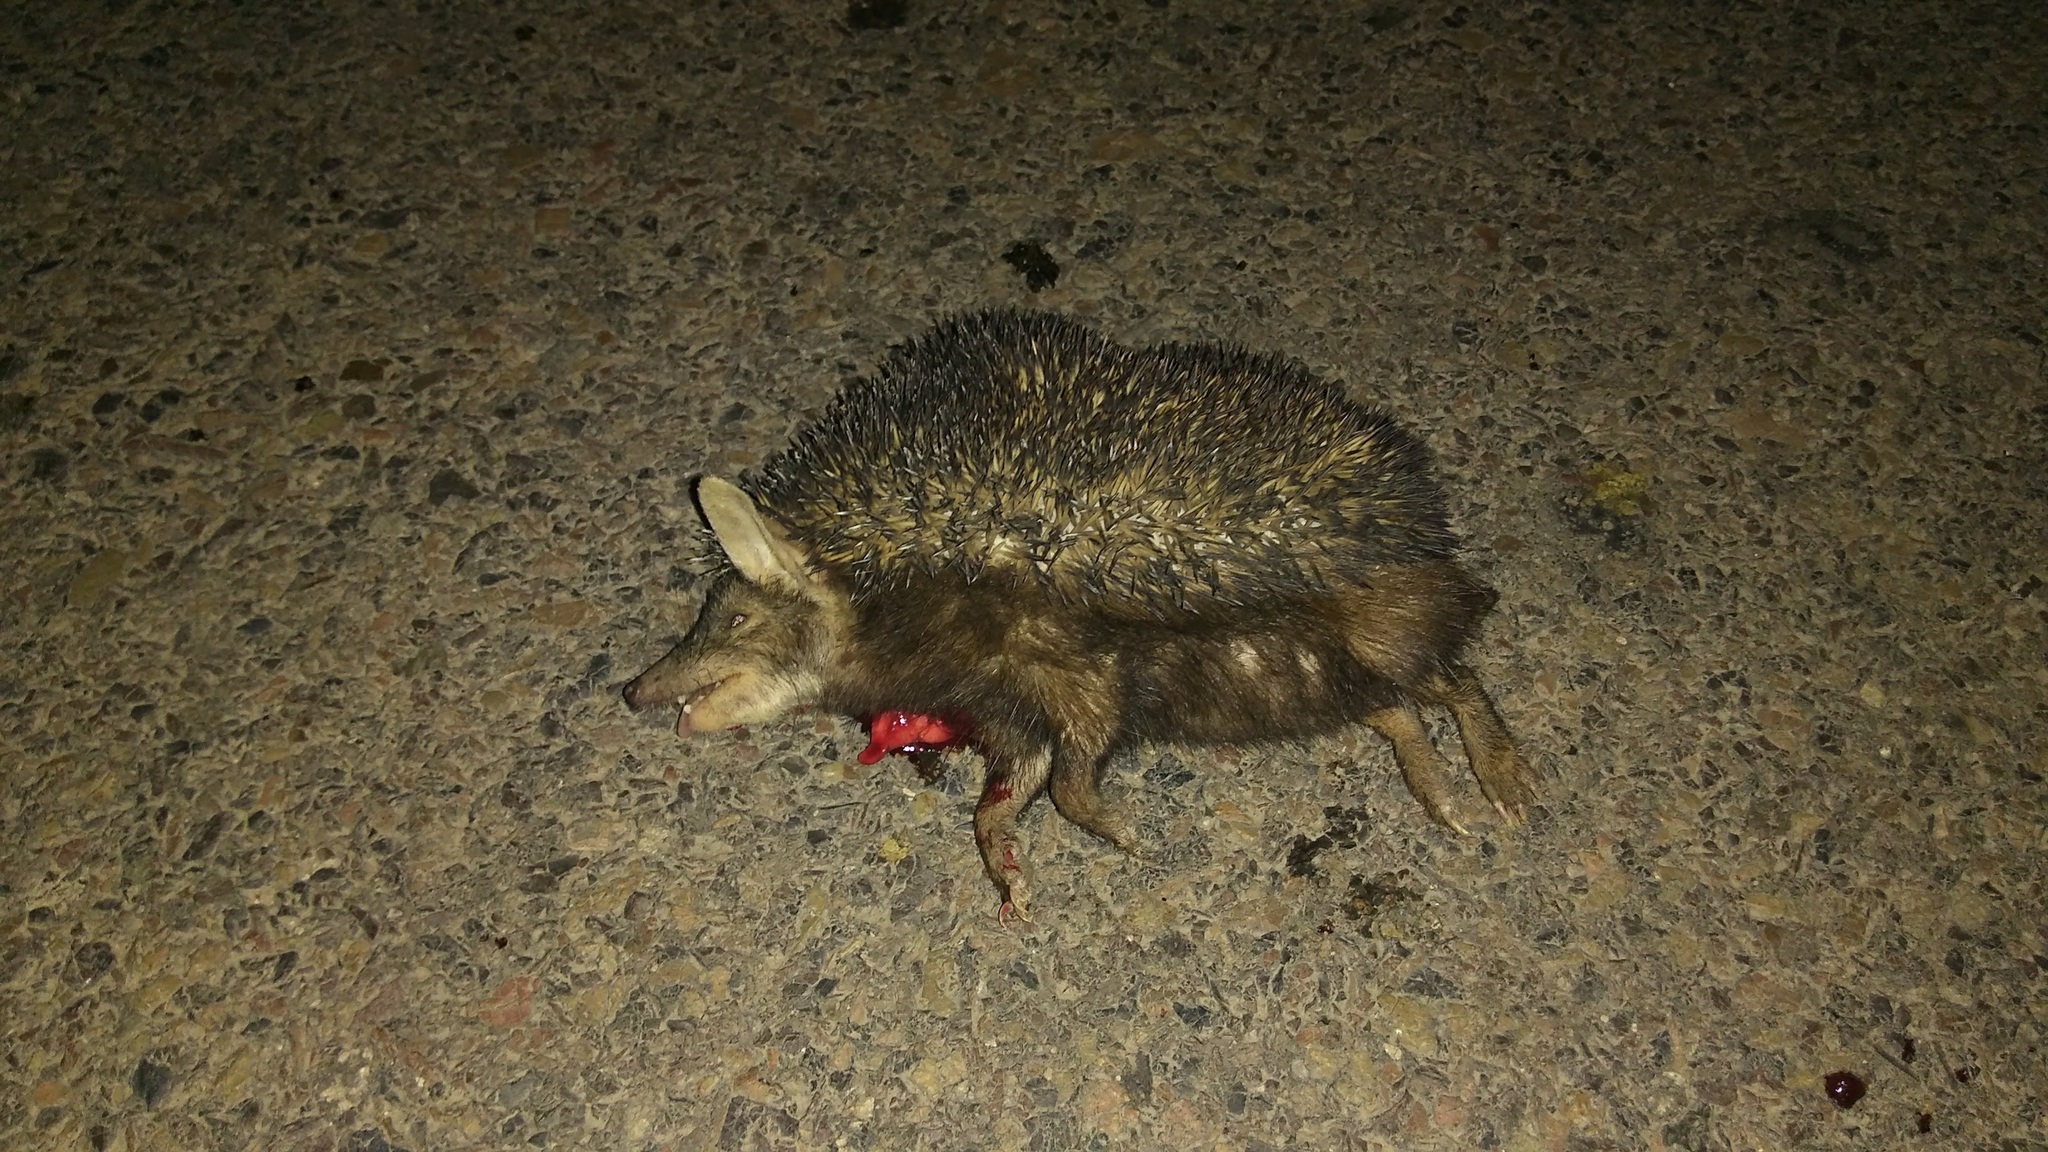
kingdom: Animalia
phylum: Chordata
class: Mammalia
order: Erinaceomorpha
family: Erinaceidae
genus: Hemiechinus
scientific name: Hemiechinus collaris
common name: Indian long-eared hedgehog
